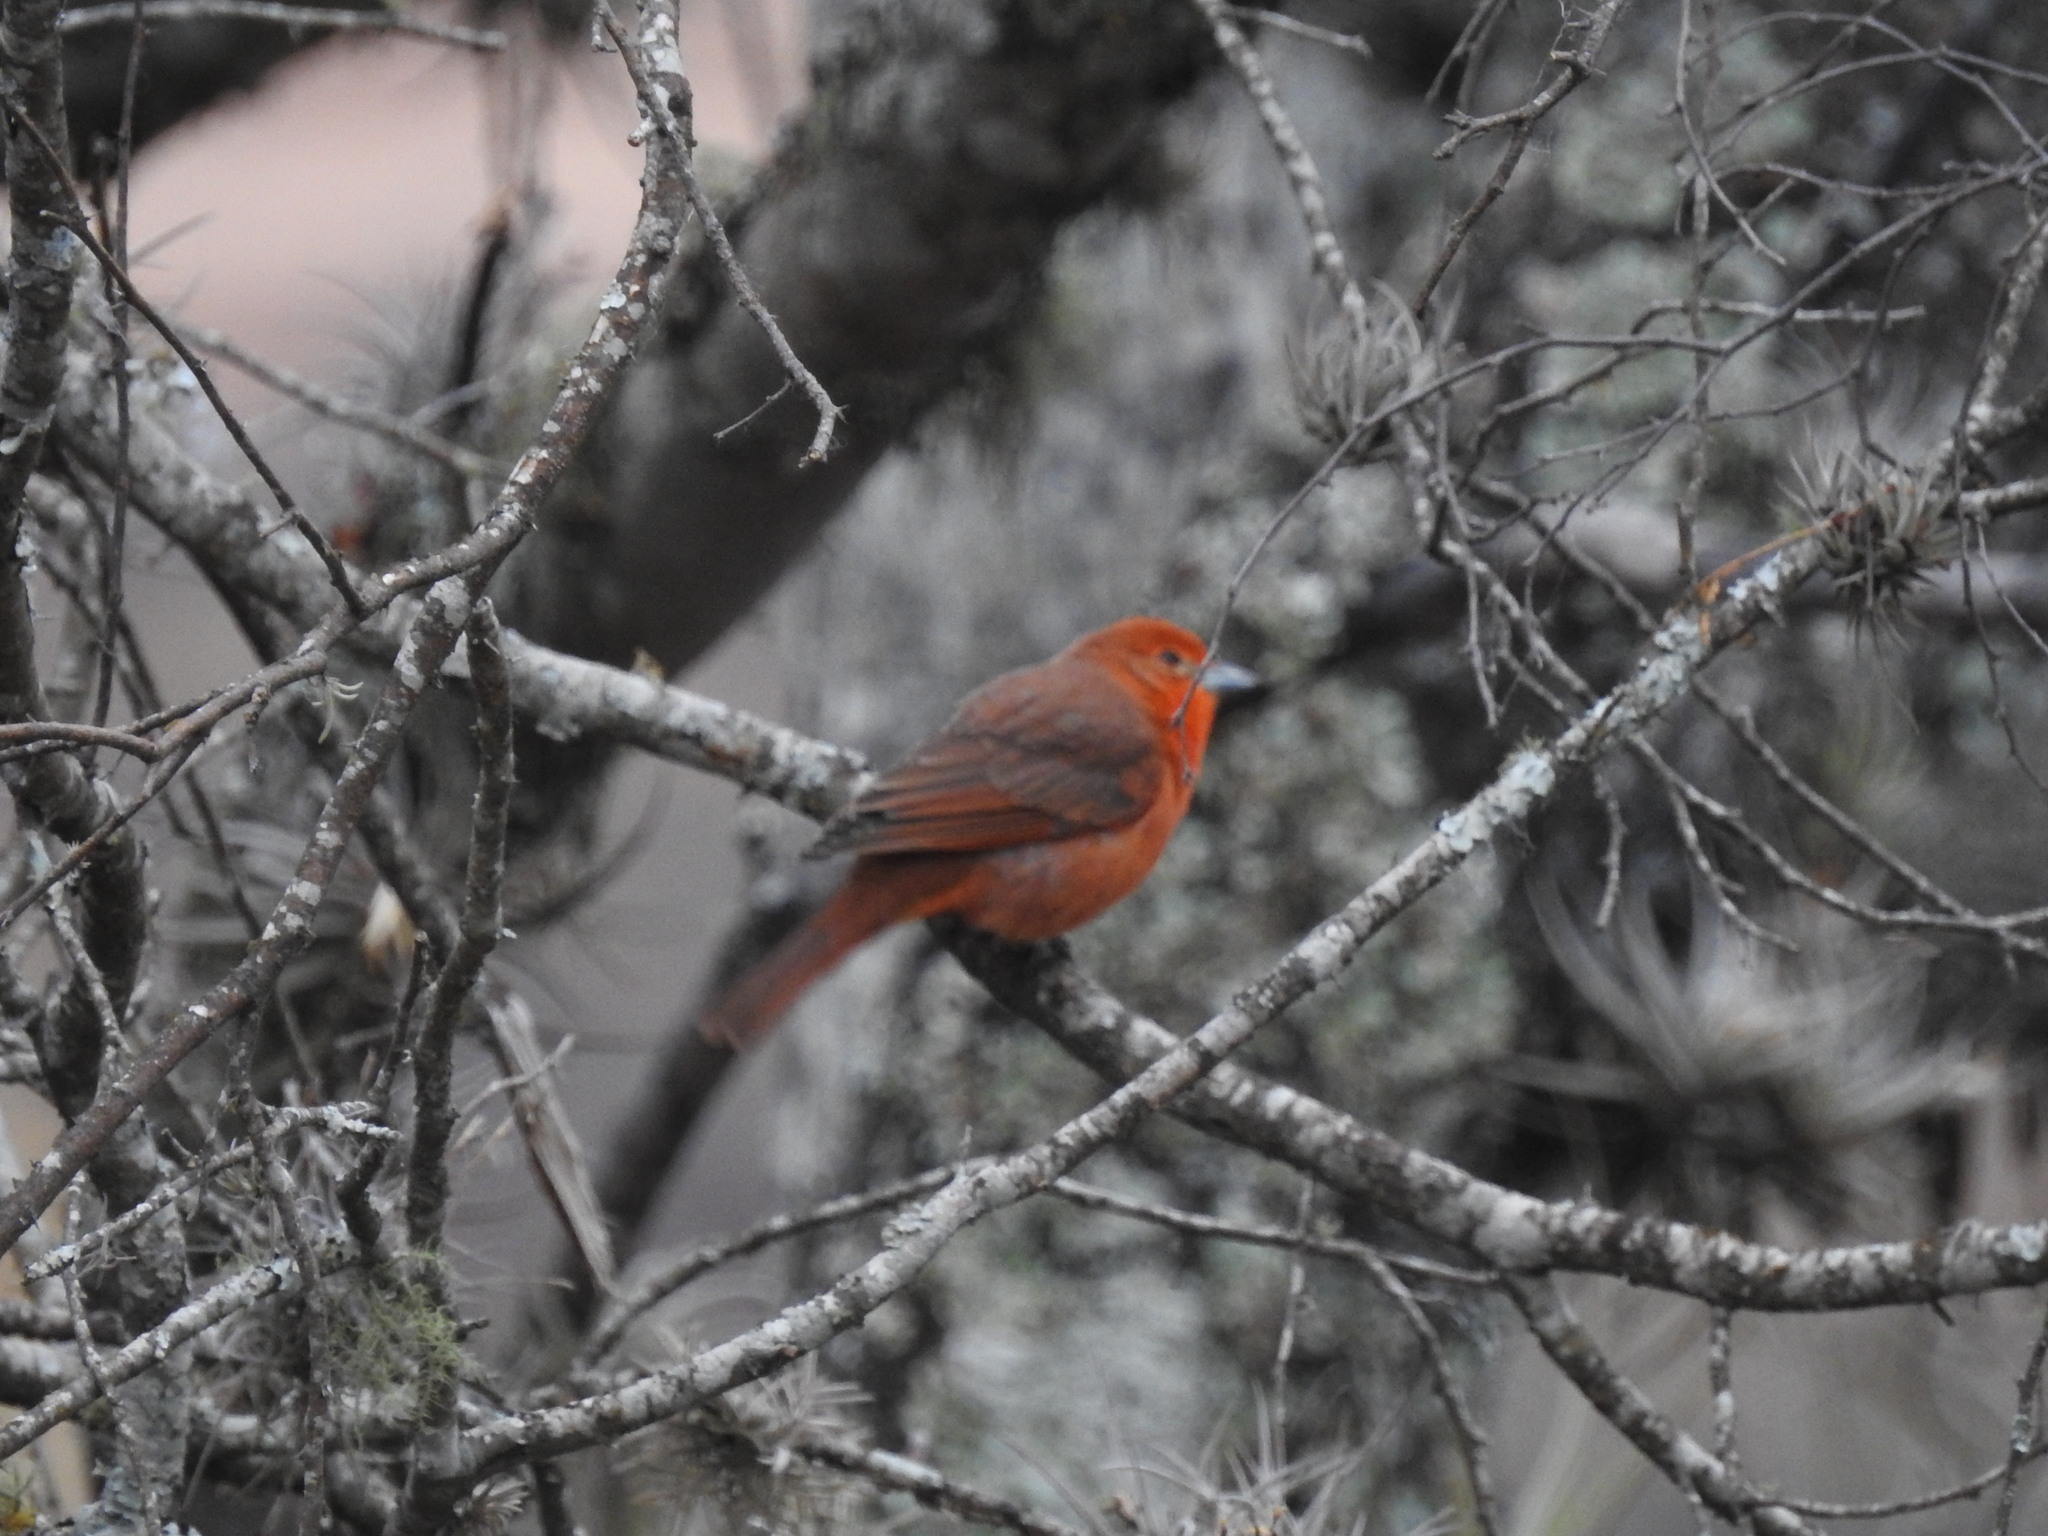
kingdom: Animalia
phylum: Chordata
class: Aves
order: Passeriformes
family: Cardinalidae
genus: Piranga
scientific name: Piranga flava
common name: Red tanager
